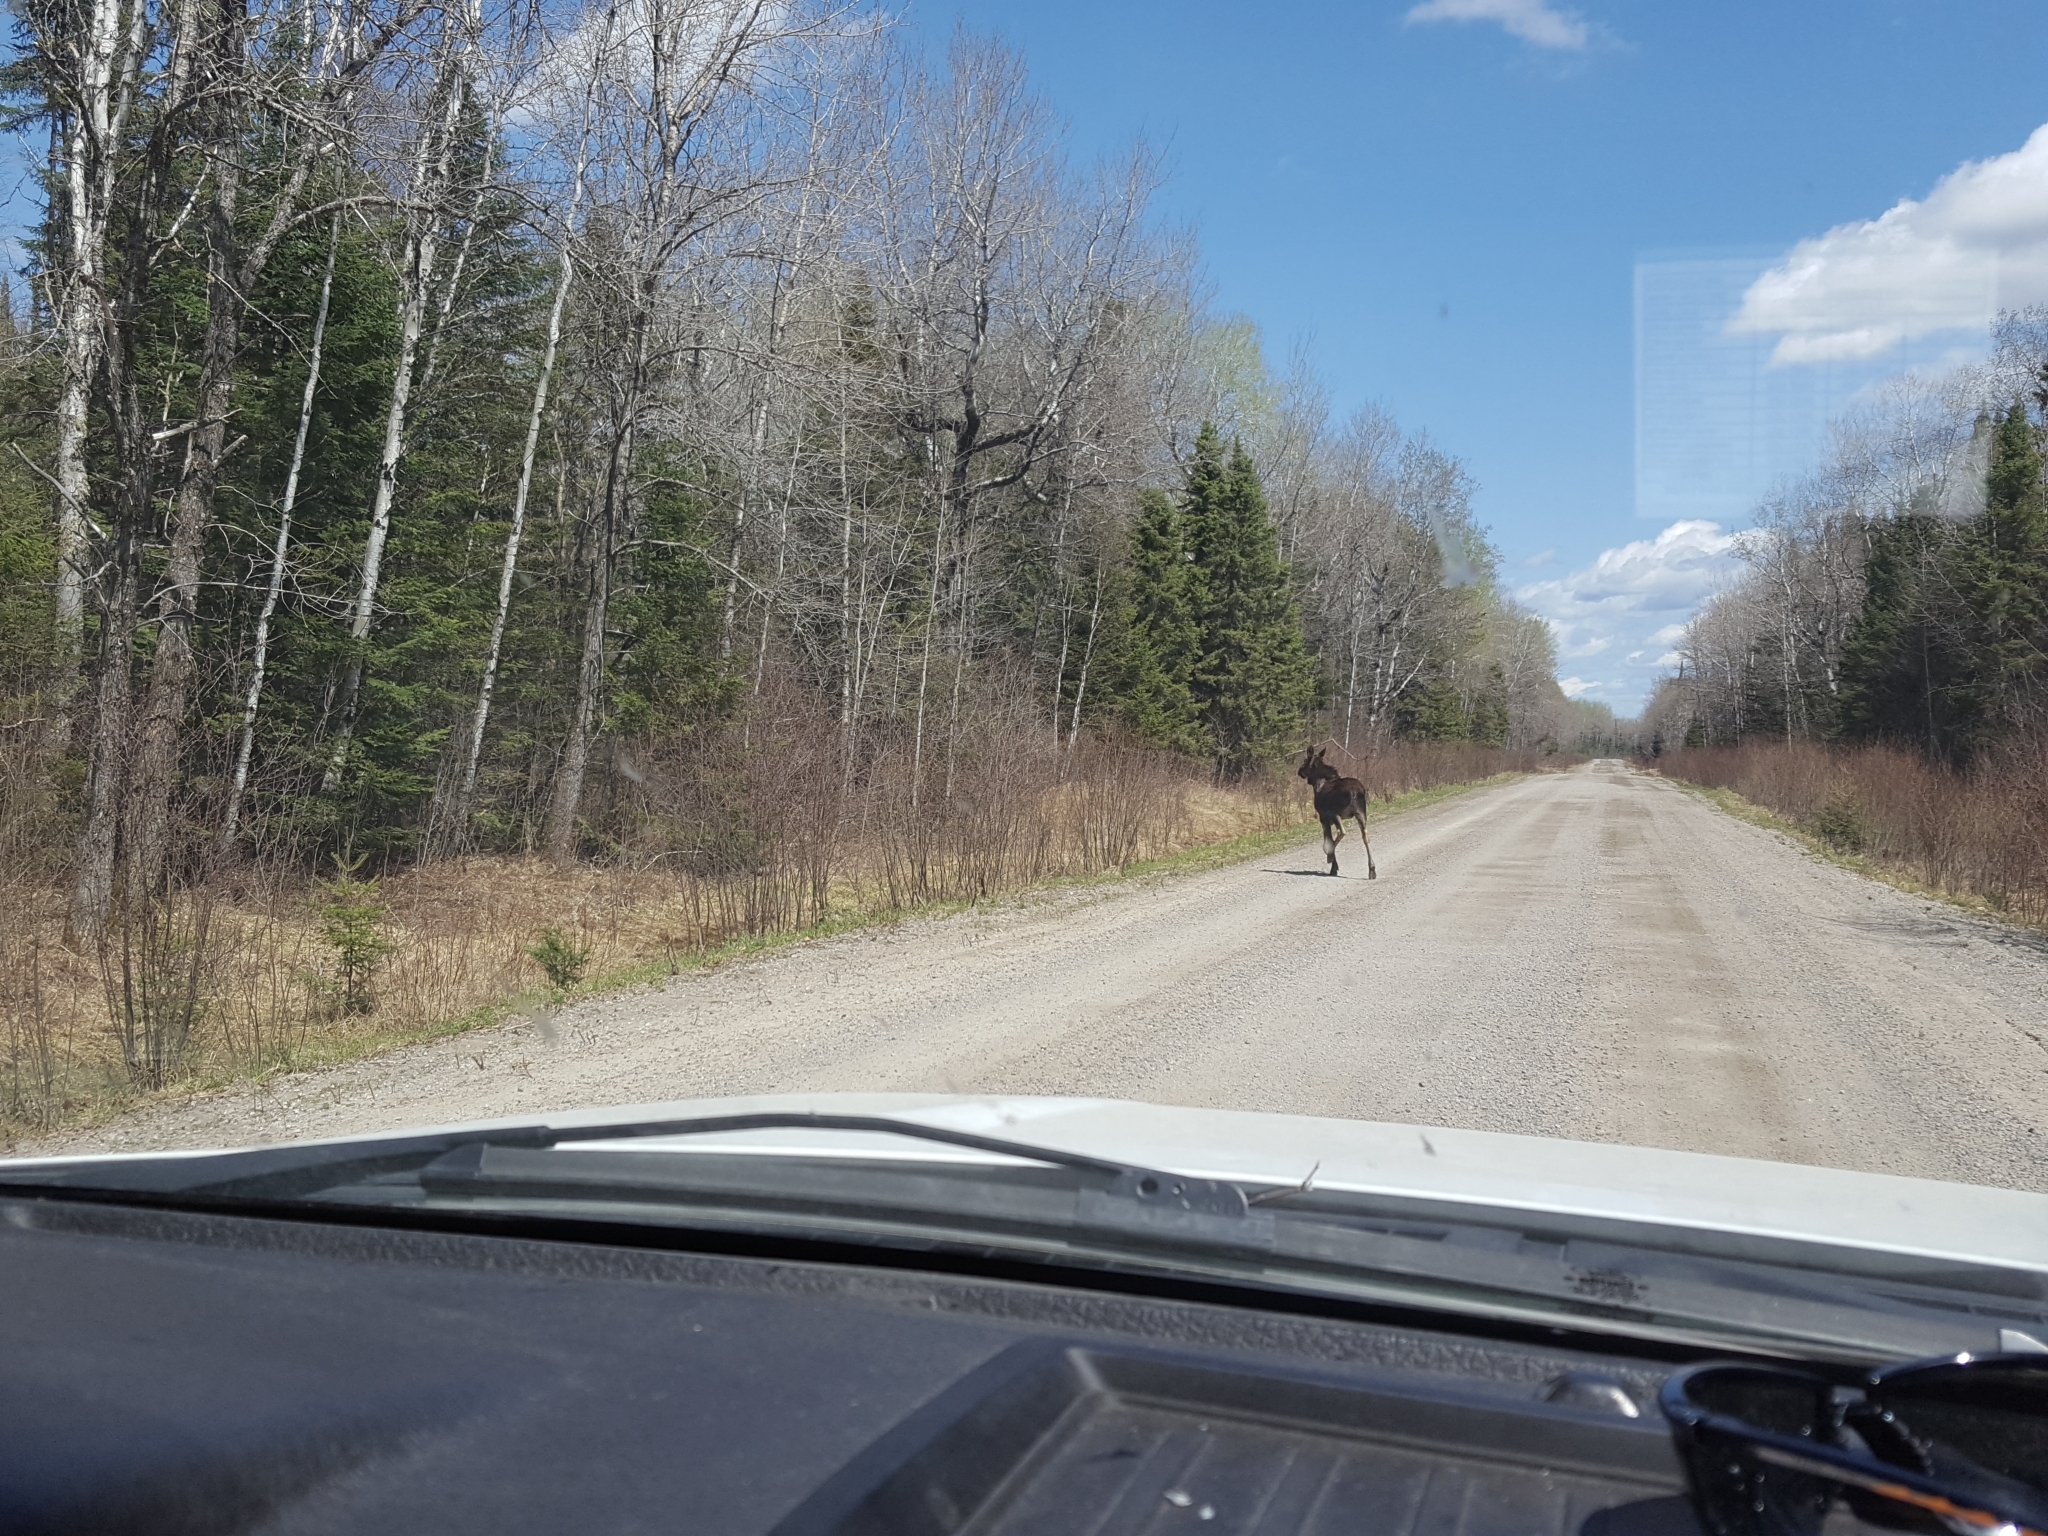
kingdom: Animalia
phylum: Chordata
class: Mammalia
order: Artiodactyla
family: Cervidae
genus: Alces
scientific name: Alces alces
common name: Moose
